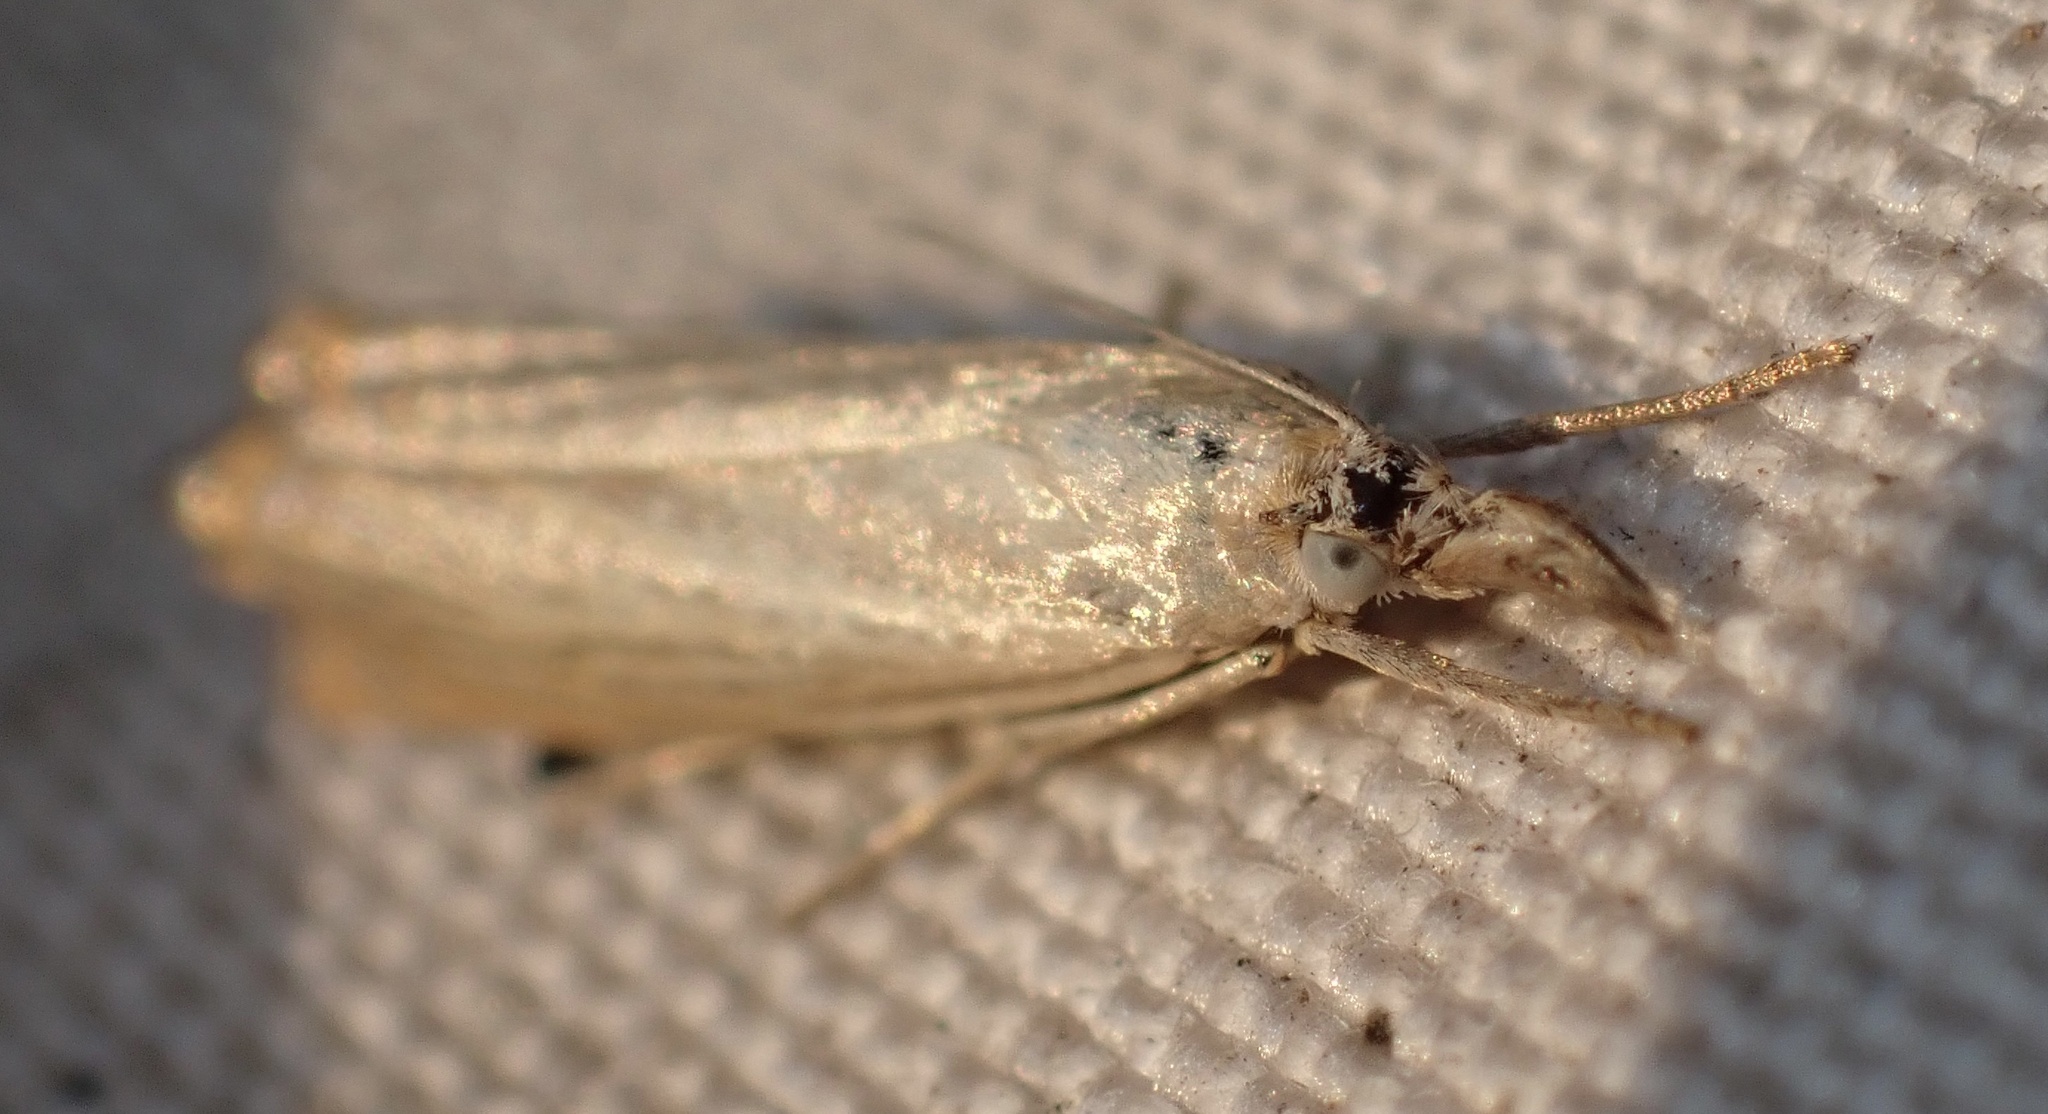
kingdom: Animalia
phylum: Arthropoda
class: Insecta
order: Lepidoptera
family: Crambidae
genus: Chrysoteuchia
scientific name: Chrysoteuchia culmella
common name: Garden grass-veneer
